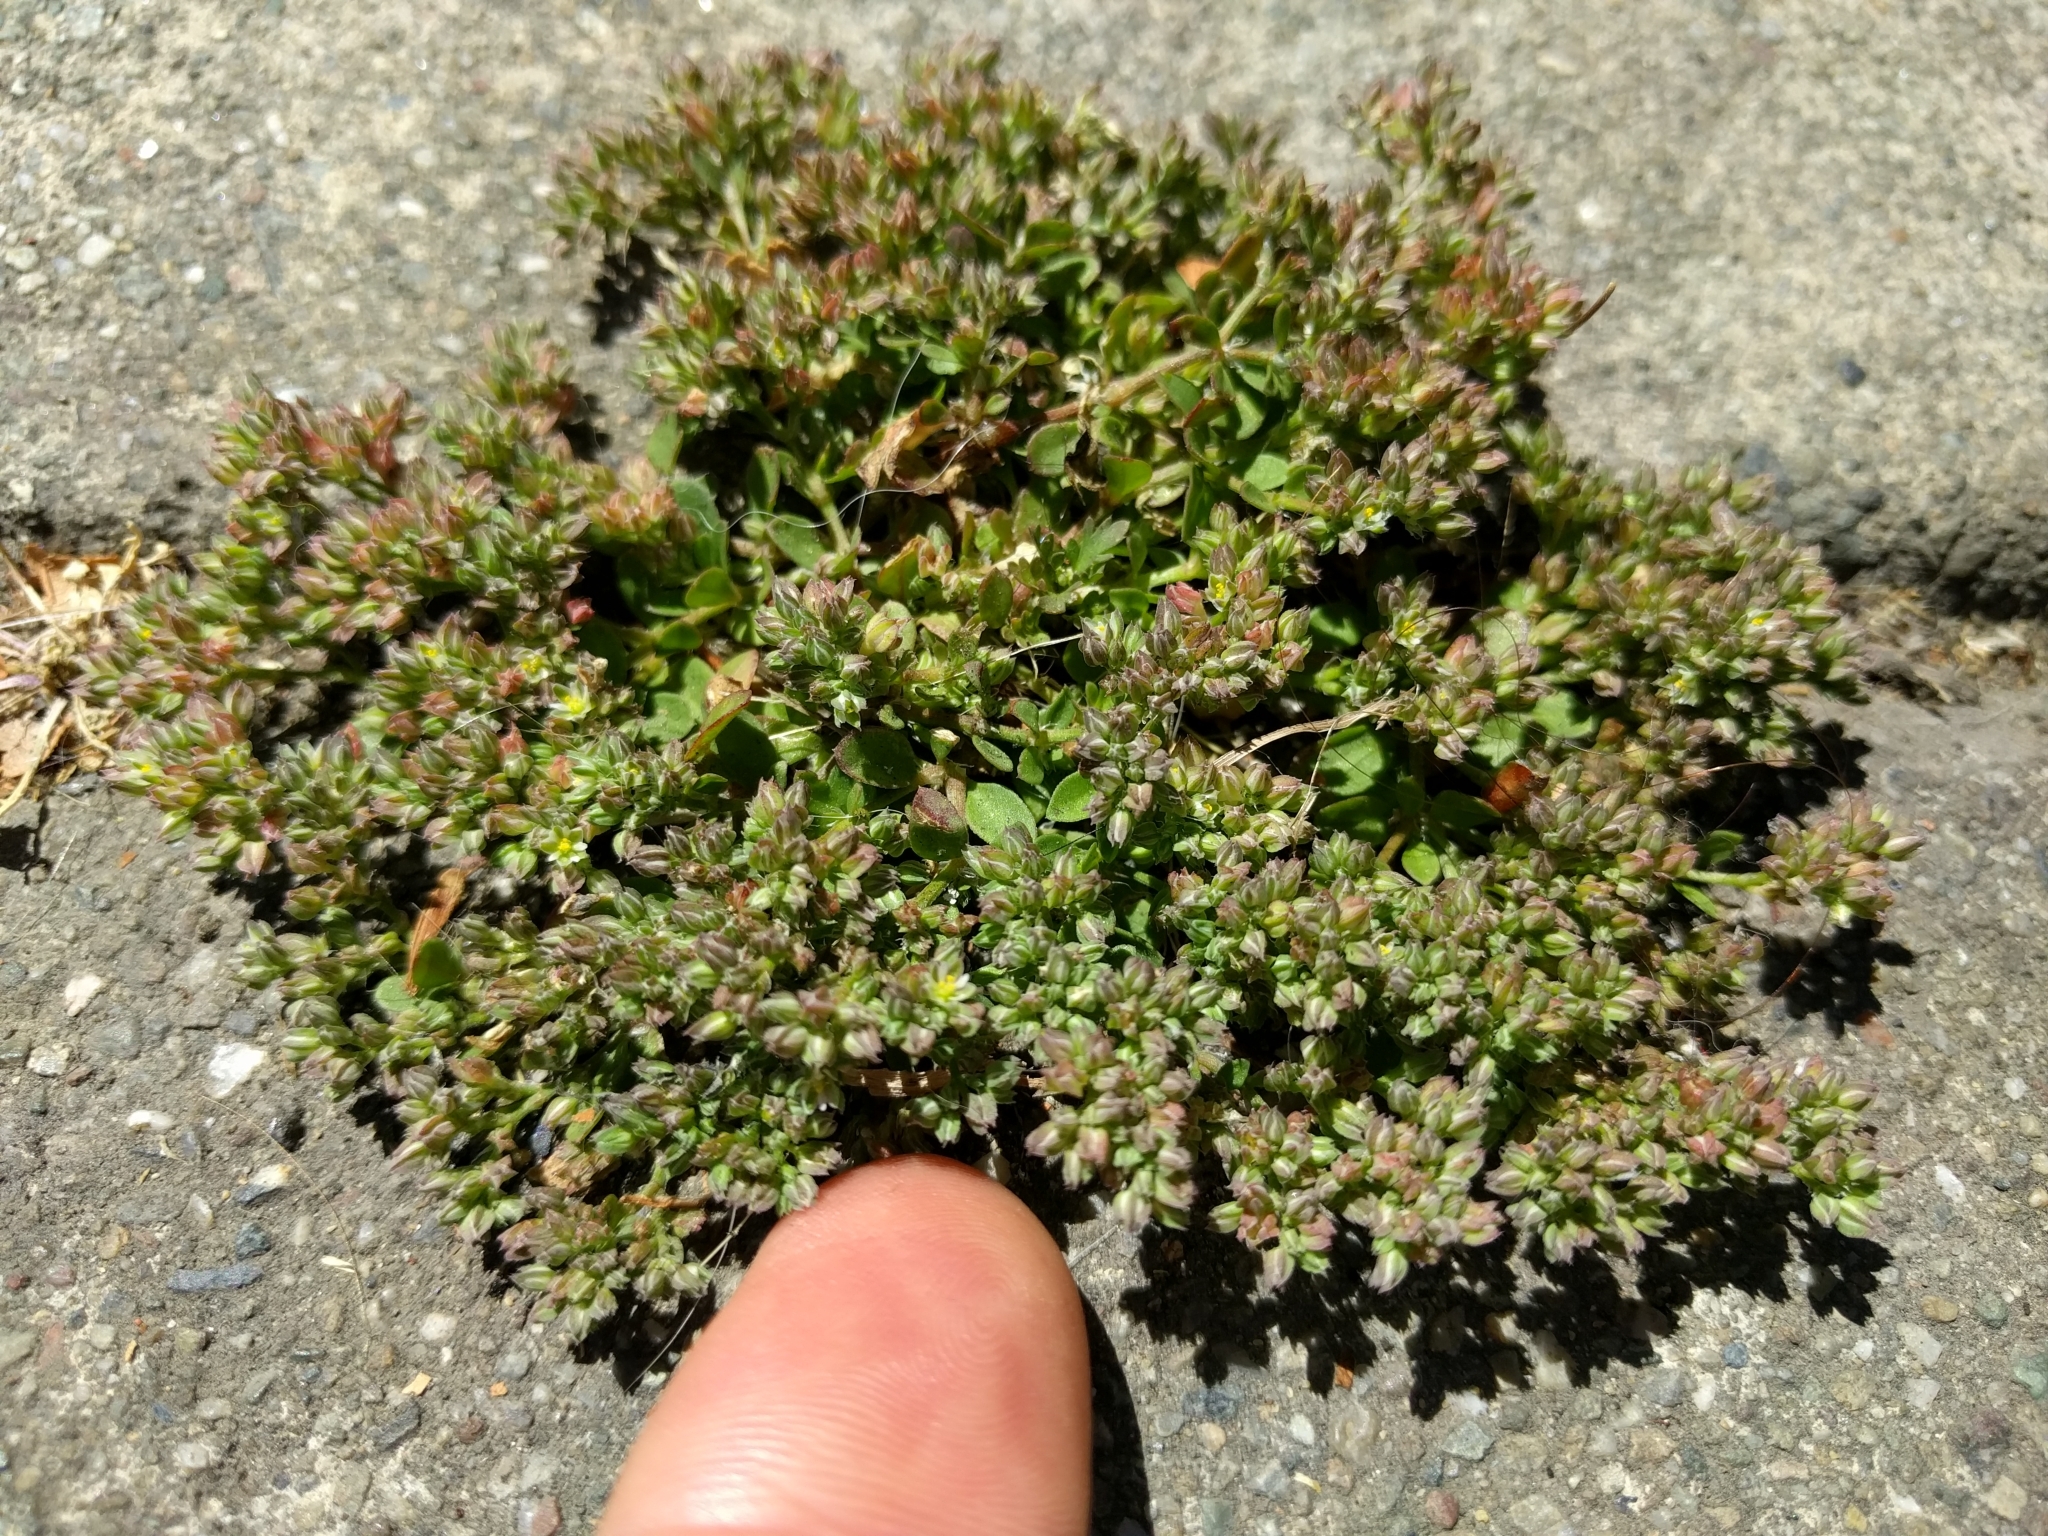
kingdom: Plantae
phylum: Tracheophyta
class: Magnoliopsida
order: Caryophyllales
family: Caryophyllaceae
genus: Polycarpon
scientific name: Polycarpon tetraphyllum
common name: Four-leaved all-seed
